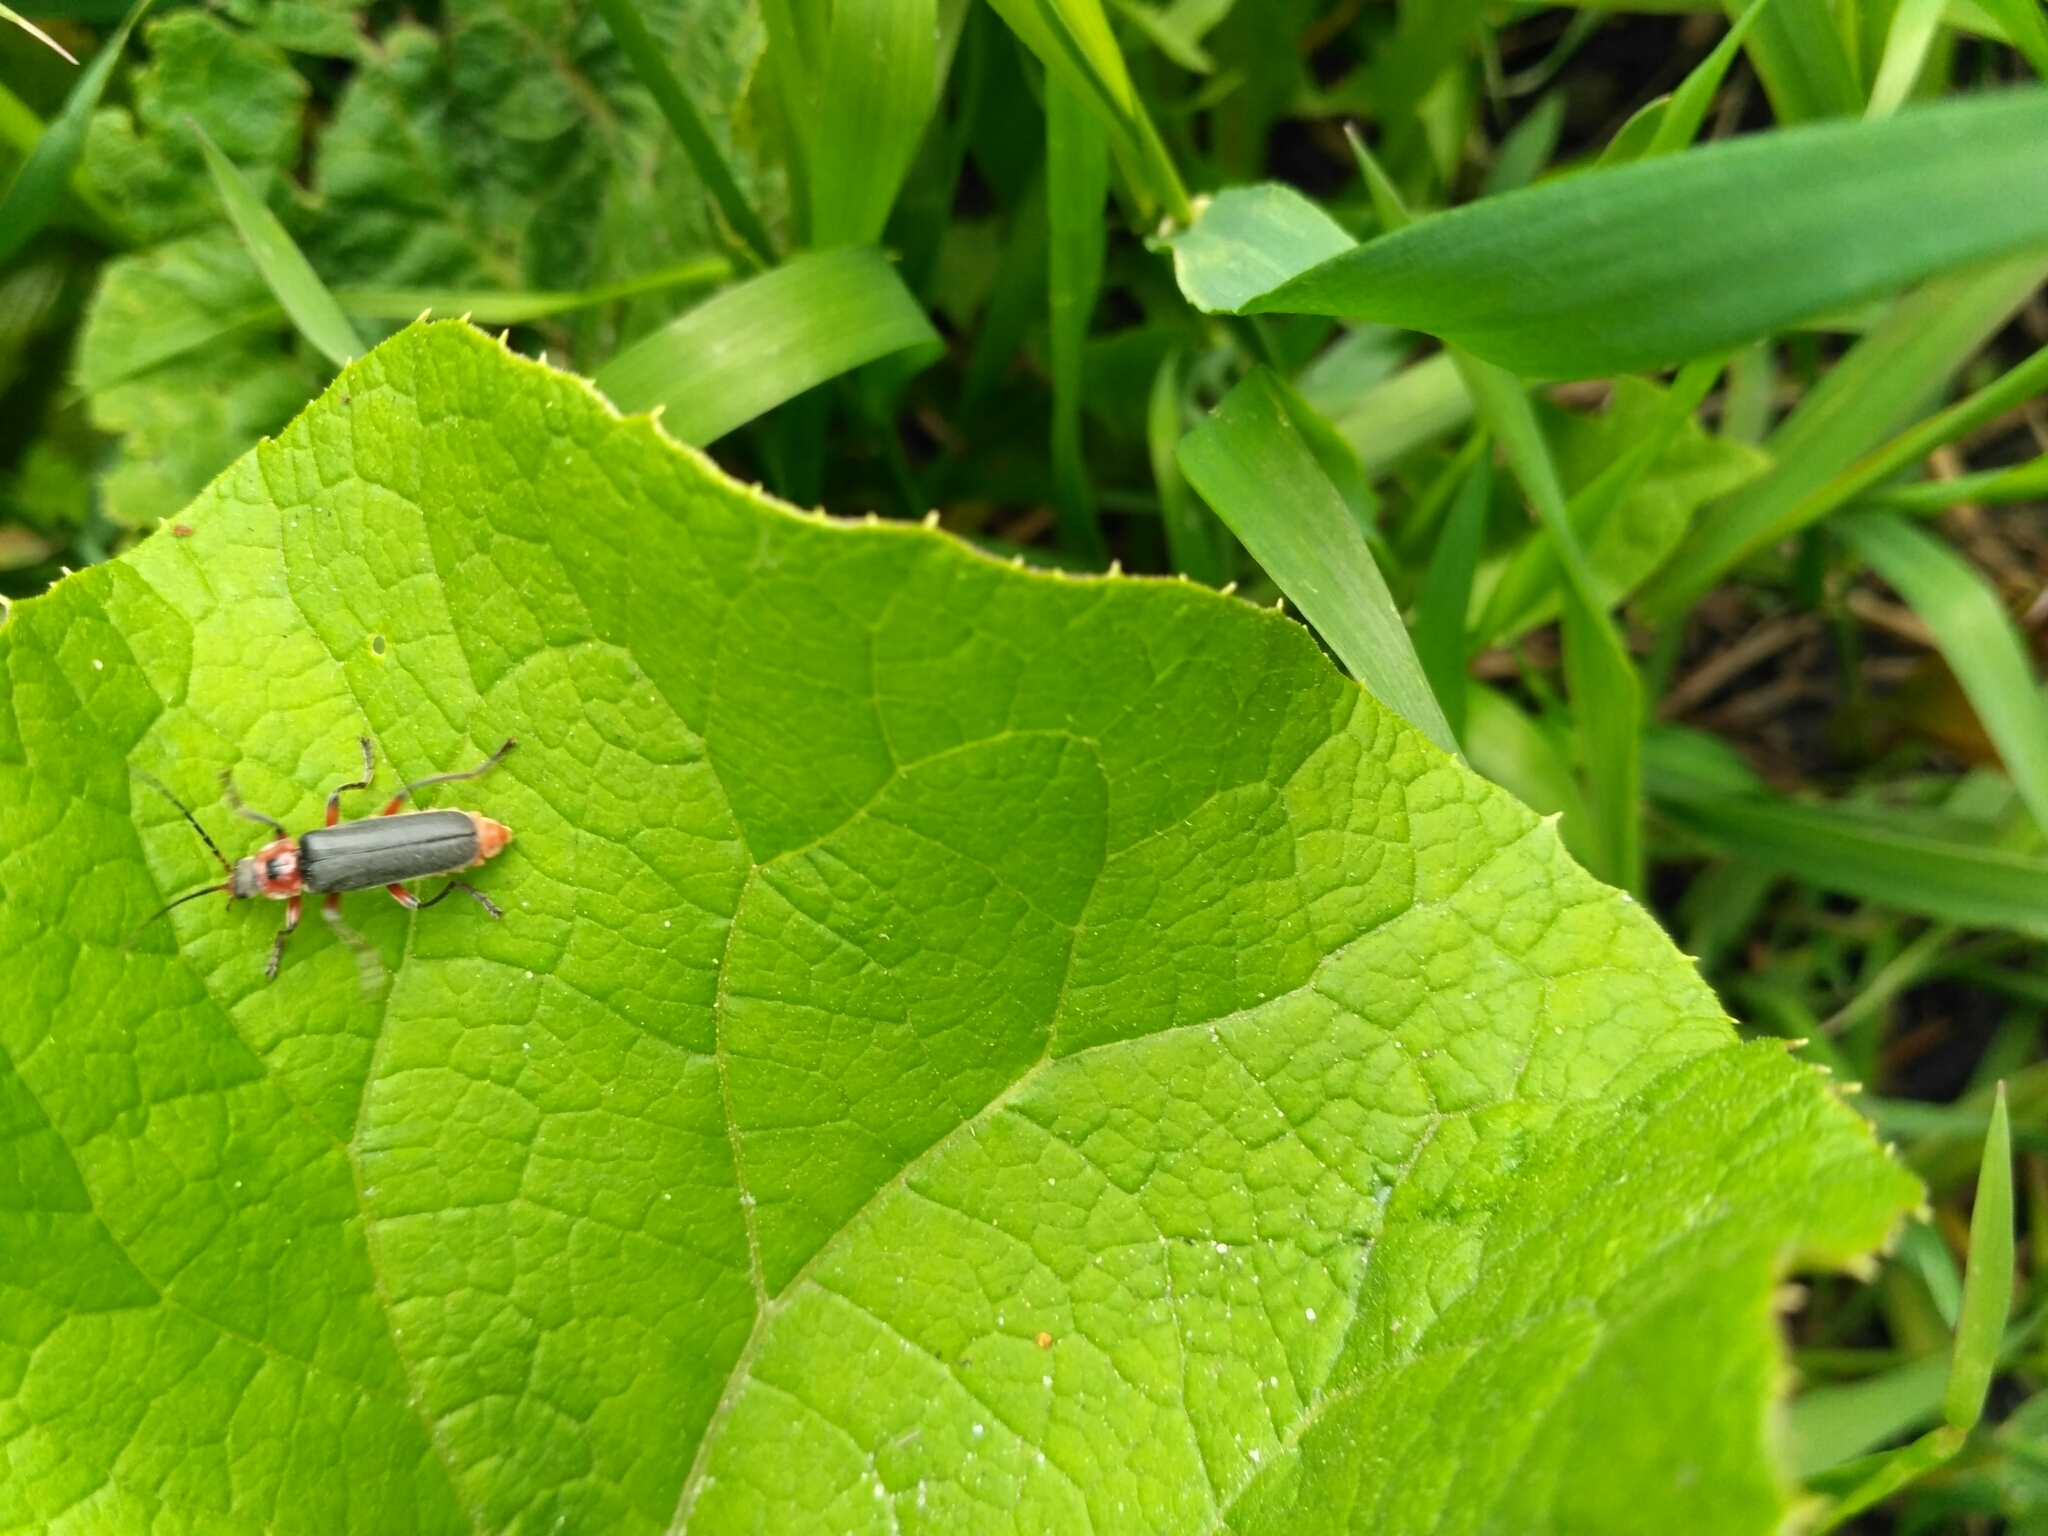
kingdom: Animalia
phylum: Arthropoda
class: Insecta
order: Coleoptera
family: Cantharidae
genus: Cantharis
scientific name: Cantharis rustica
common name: Soldier beetle
